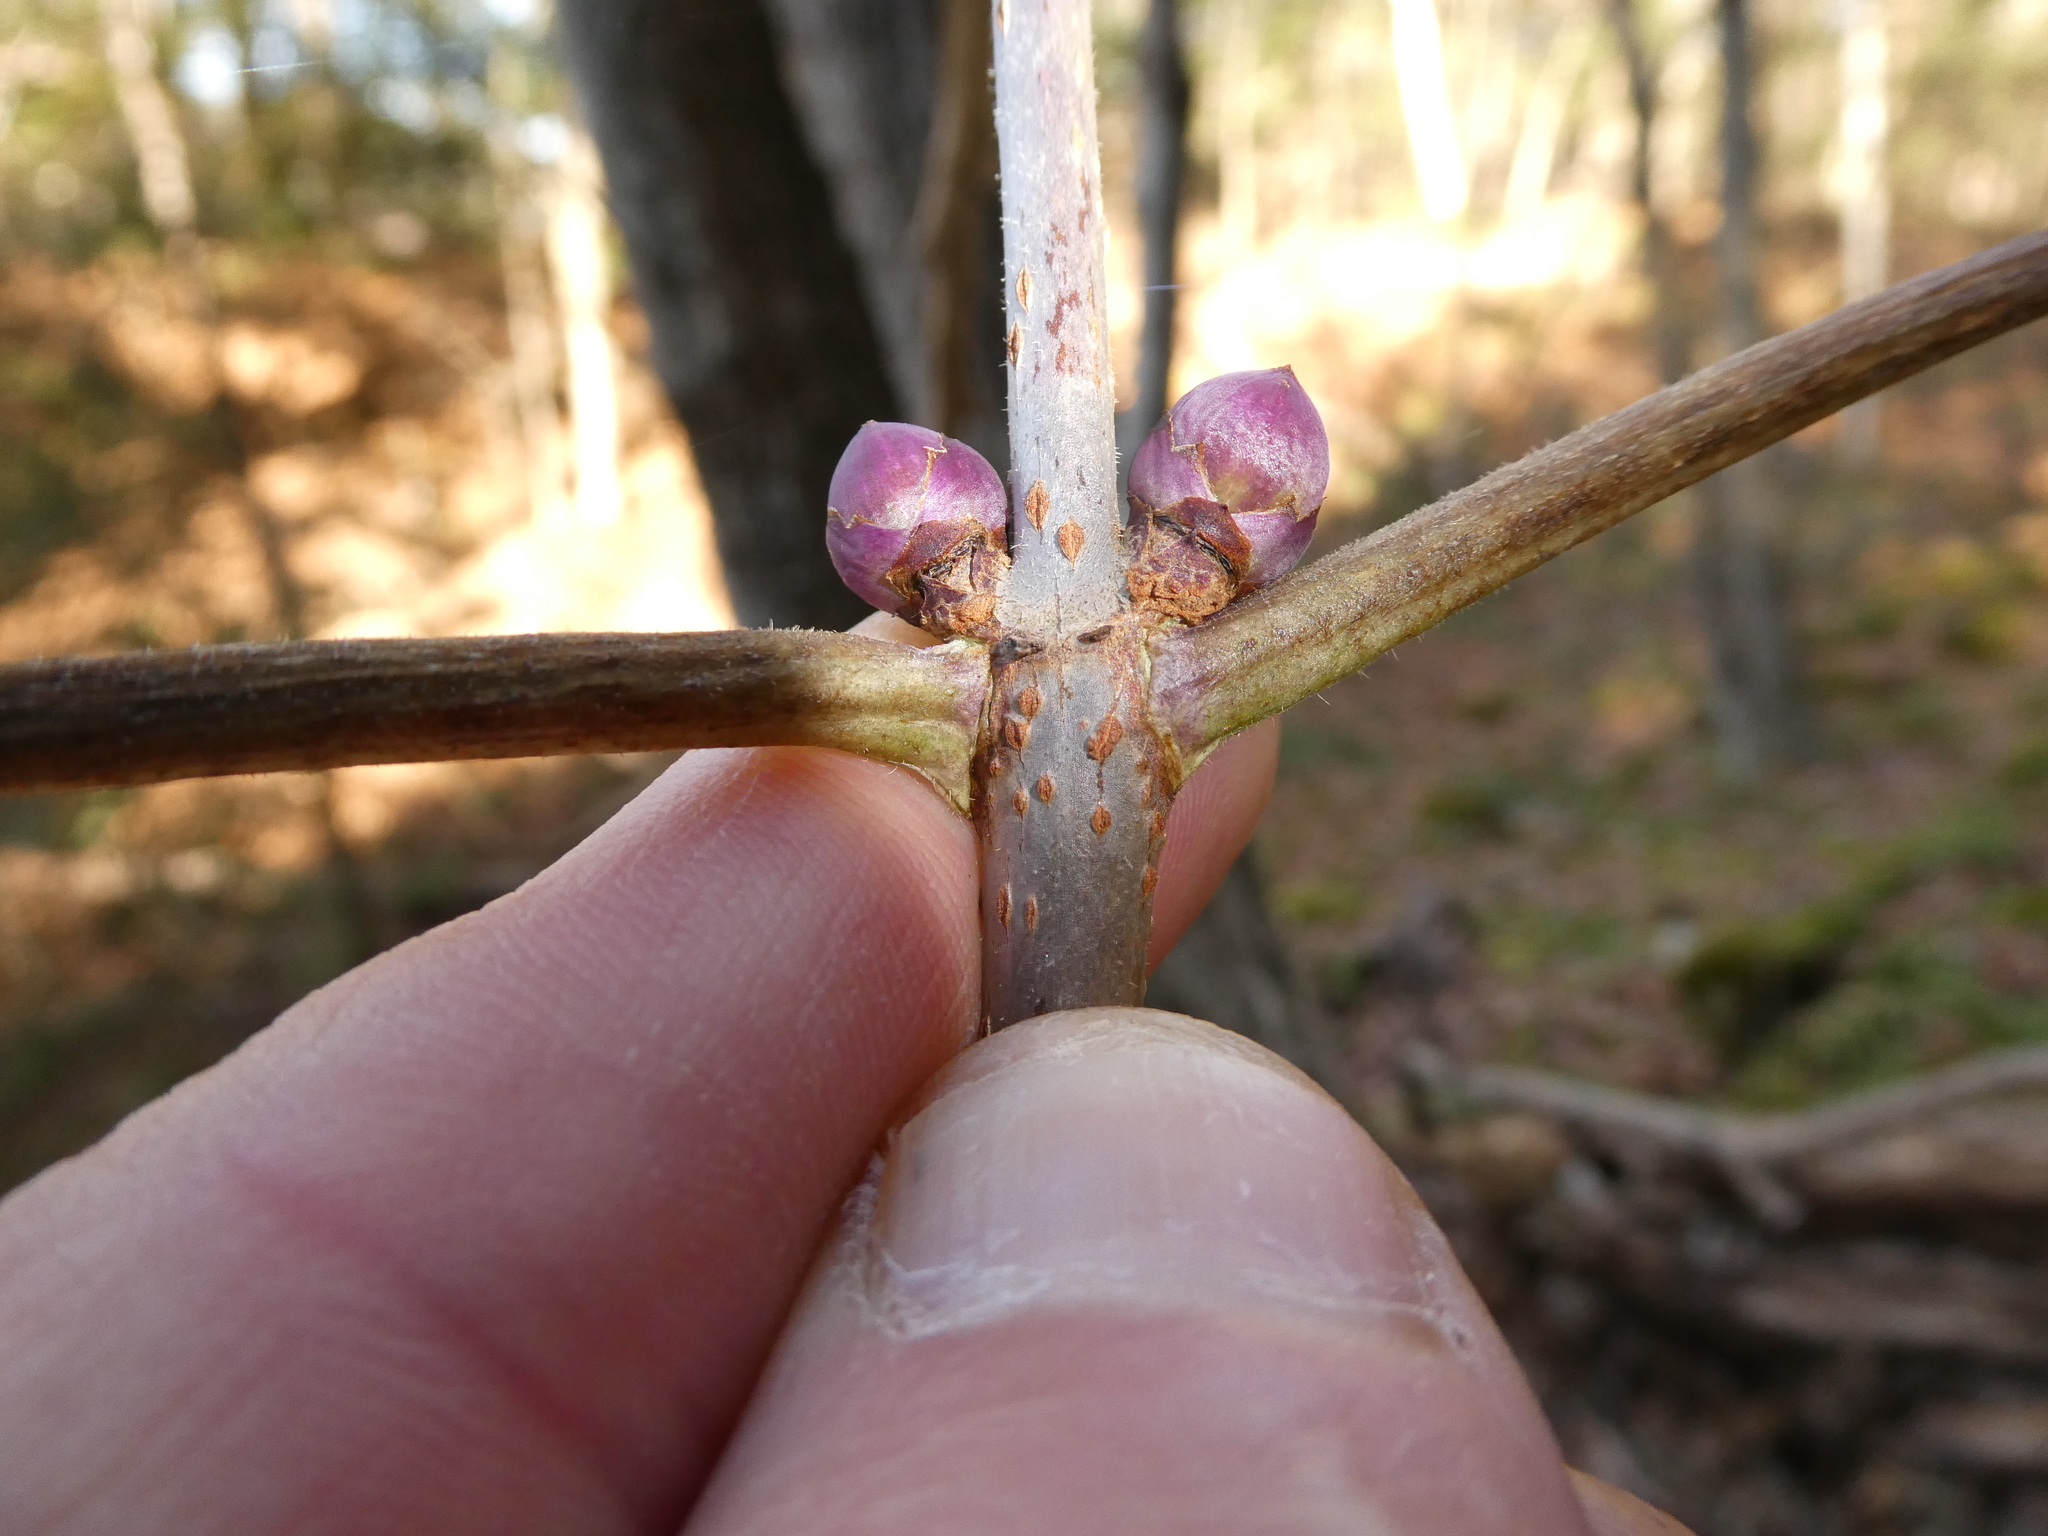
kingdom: Plantae
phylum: Tracheophyta
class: Magnoliopsida
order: Dipsacales
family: Viburnaceae
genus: Sambucus
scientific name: Sambucus racemosa
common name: Red-berried elder
